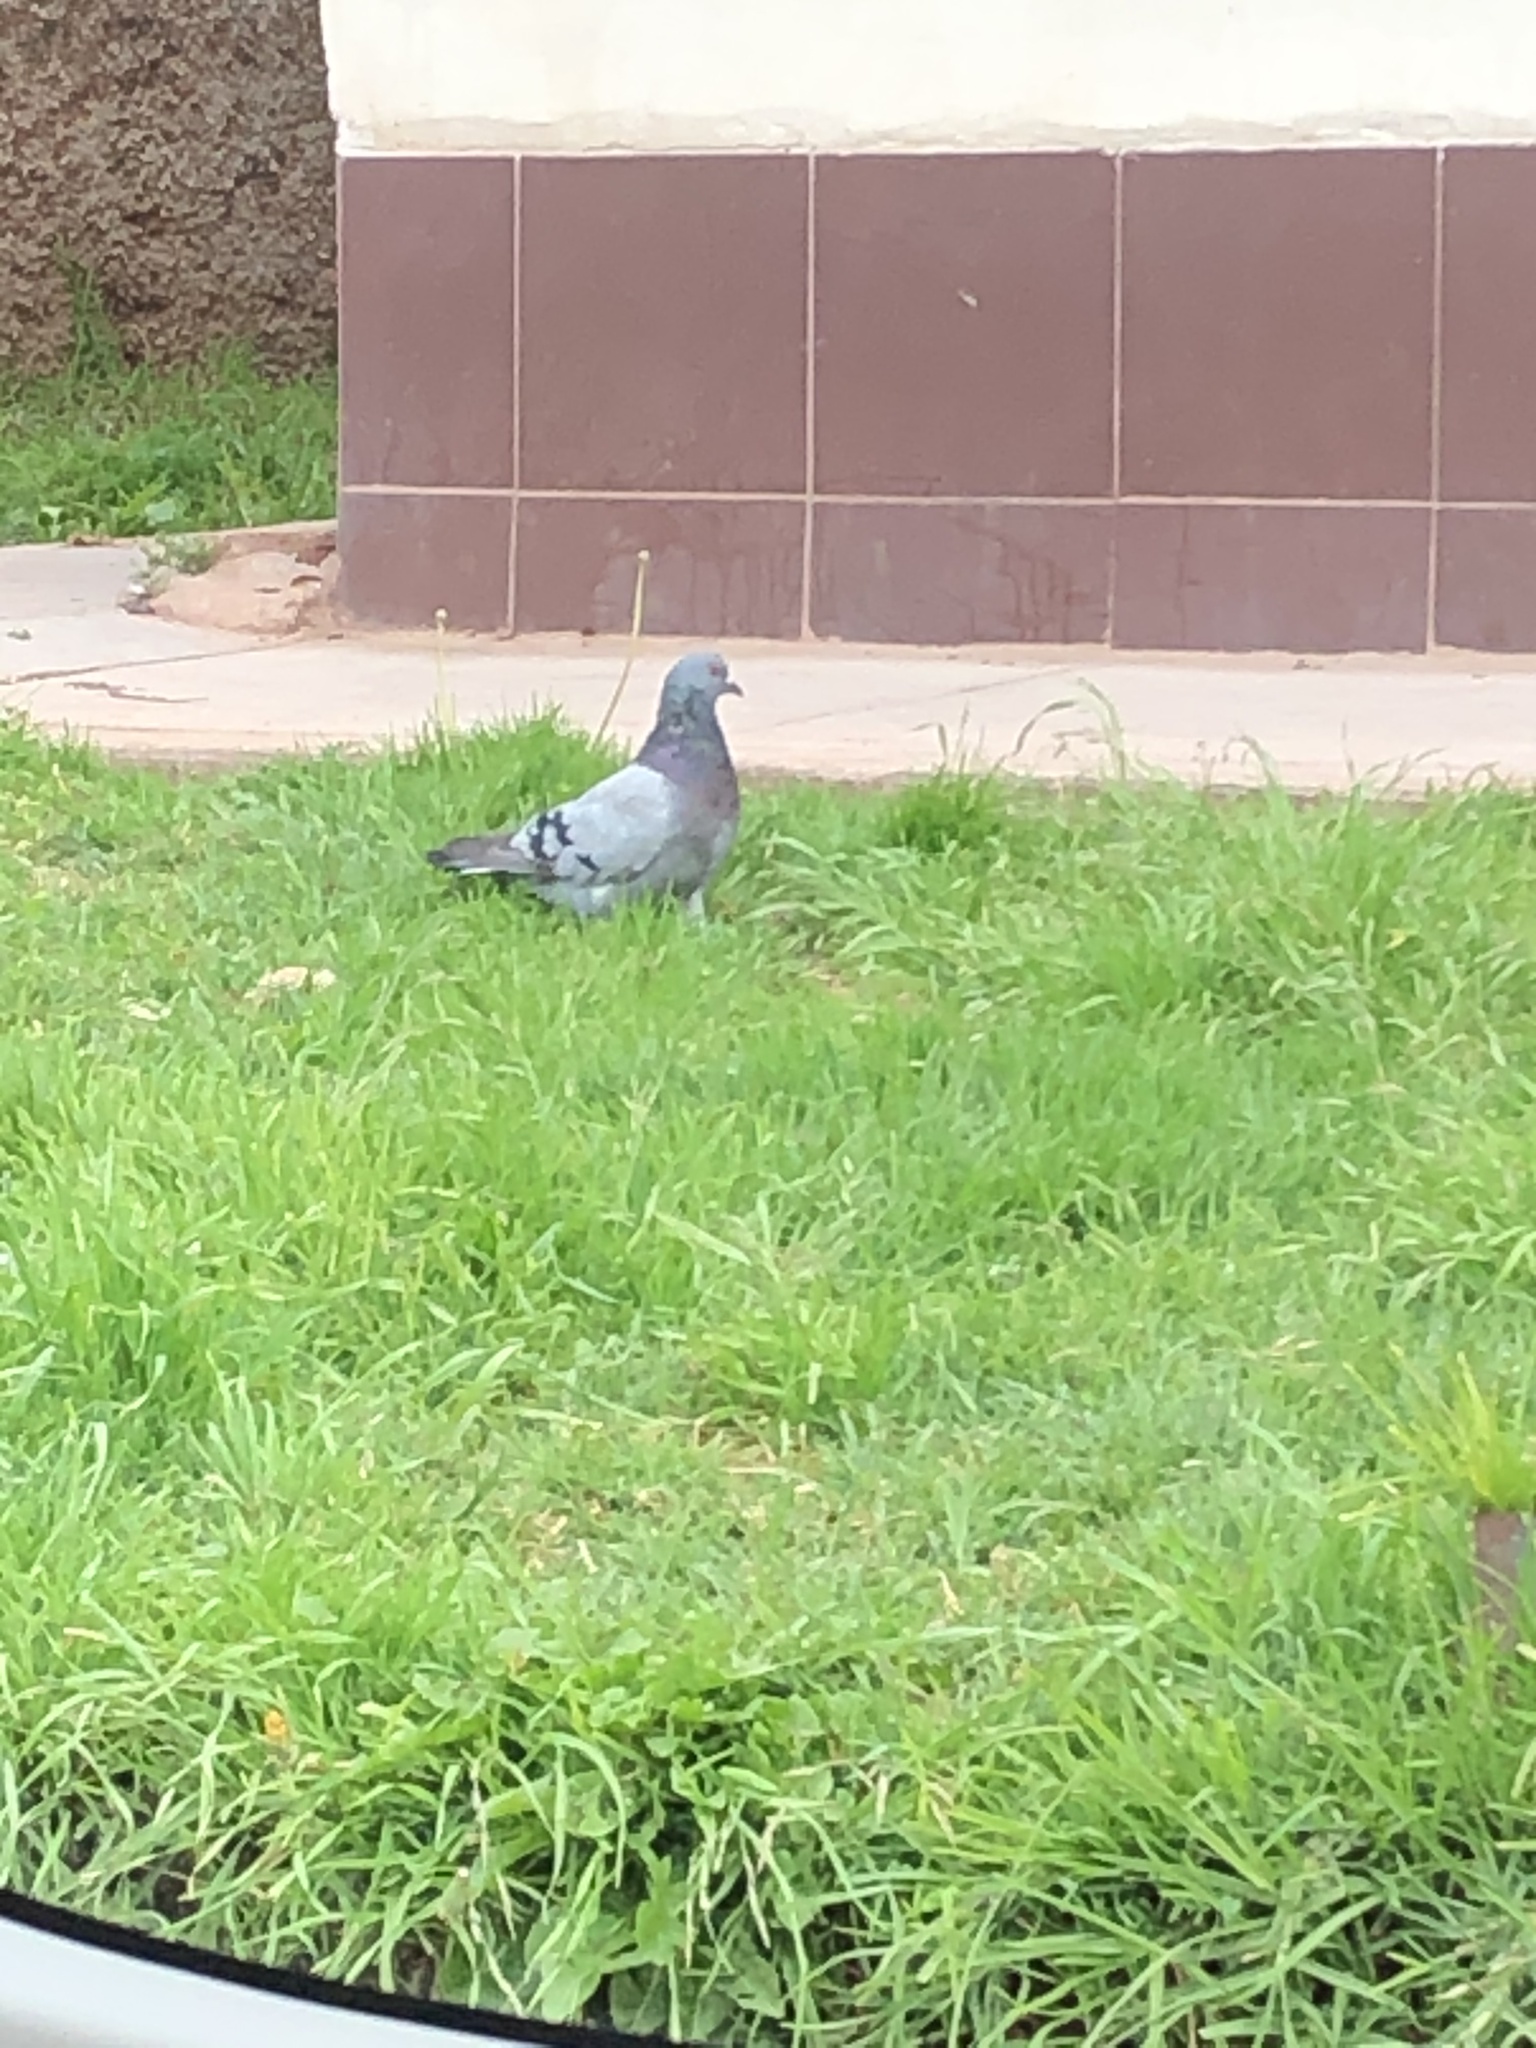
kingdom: Animalia
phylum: Chordata
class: Aves
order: Columbiformes
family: Columbidae
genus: Columba
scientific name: Columba livia
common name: Rock pigeon
